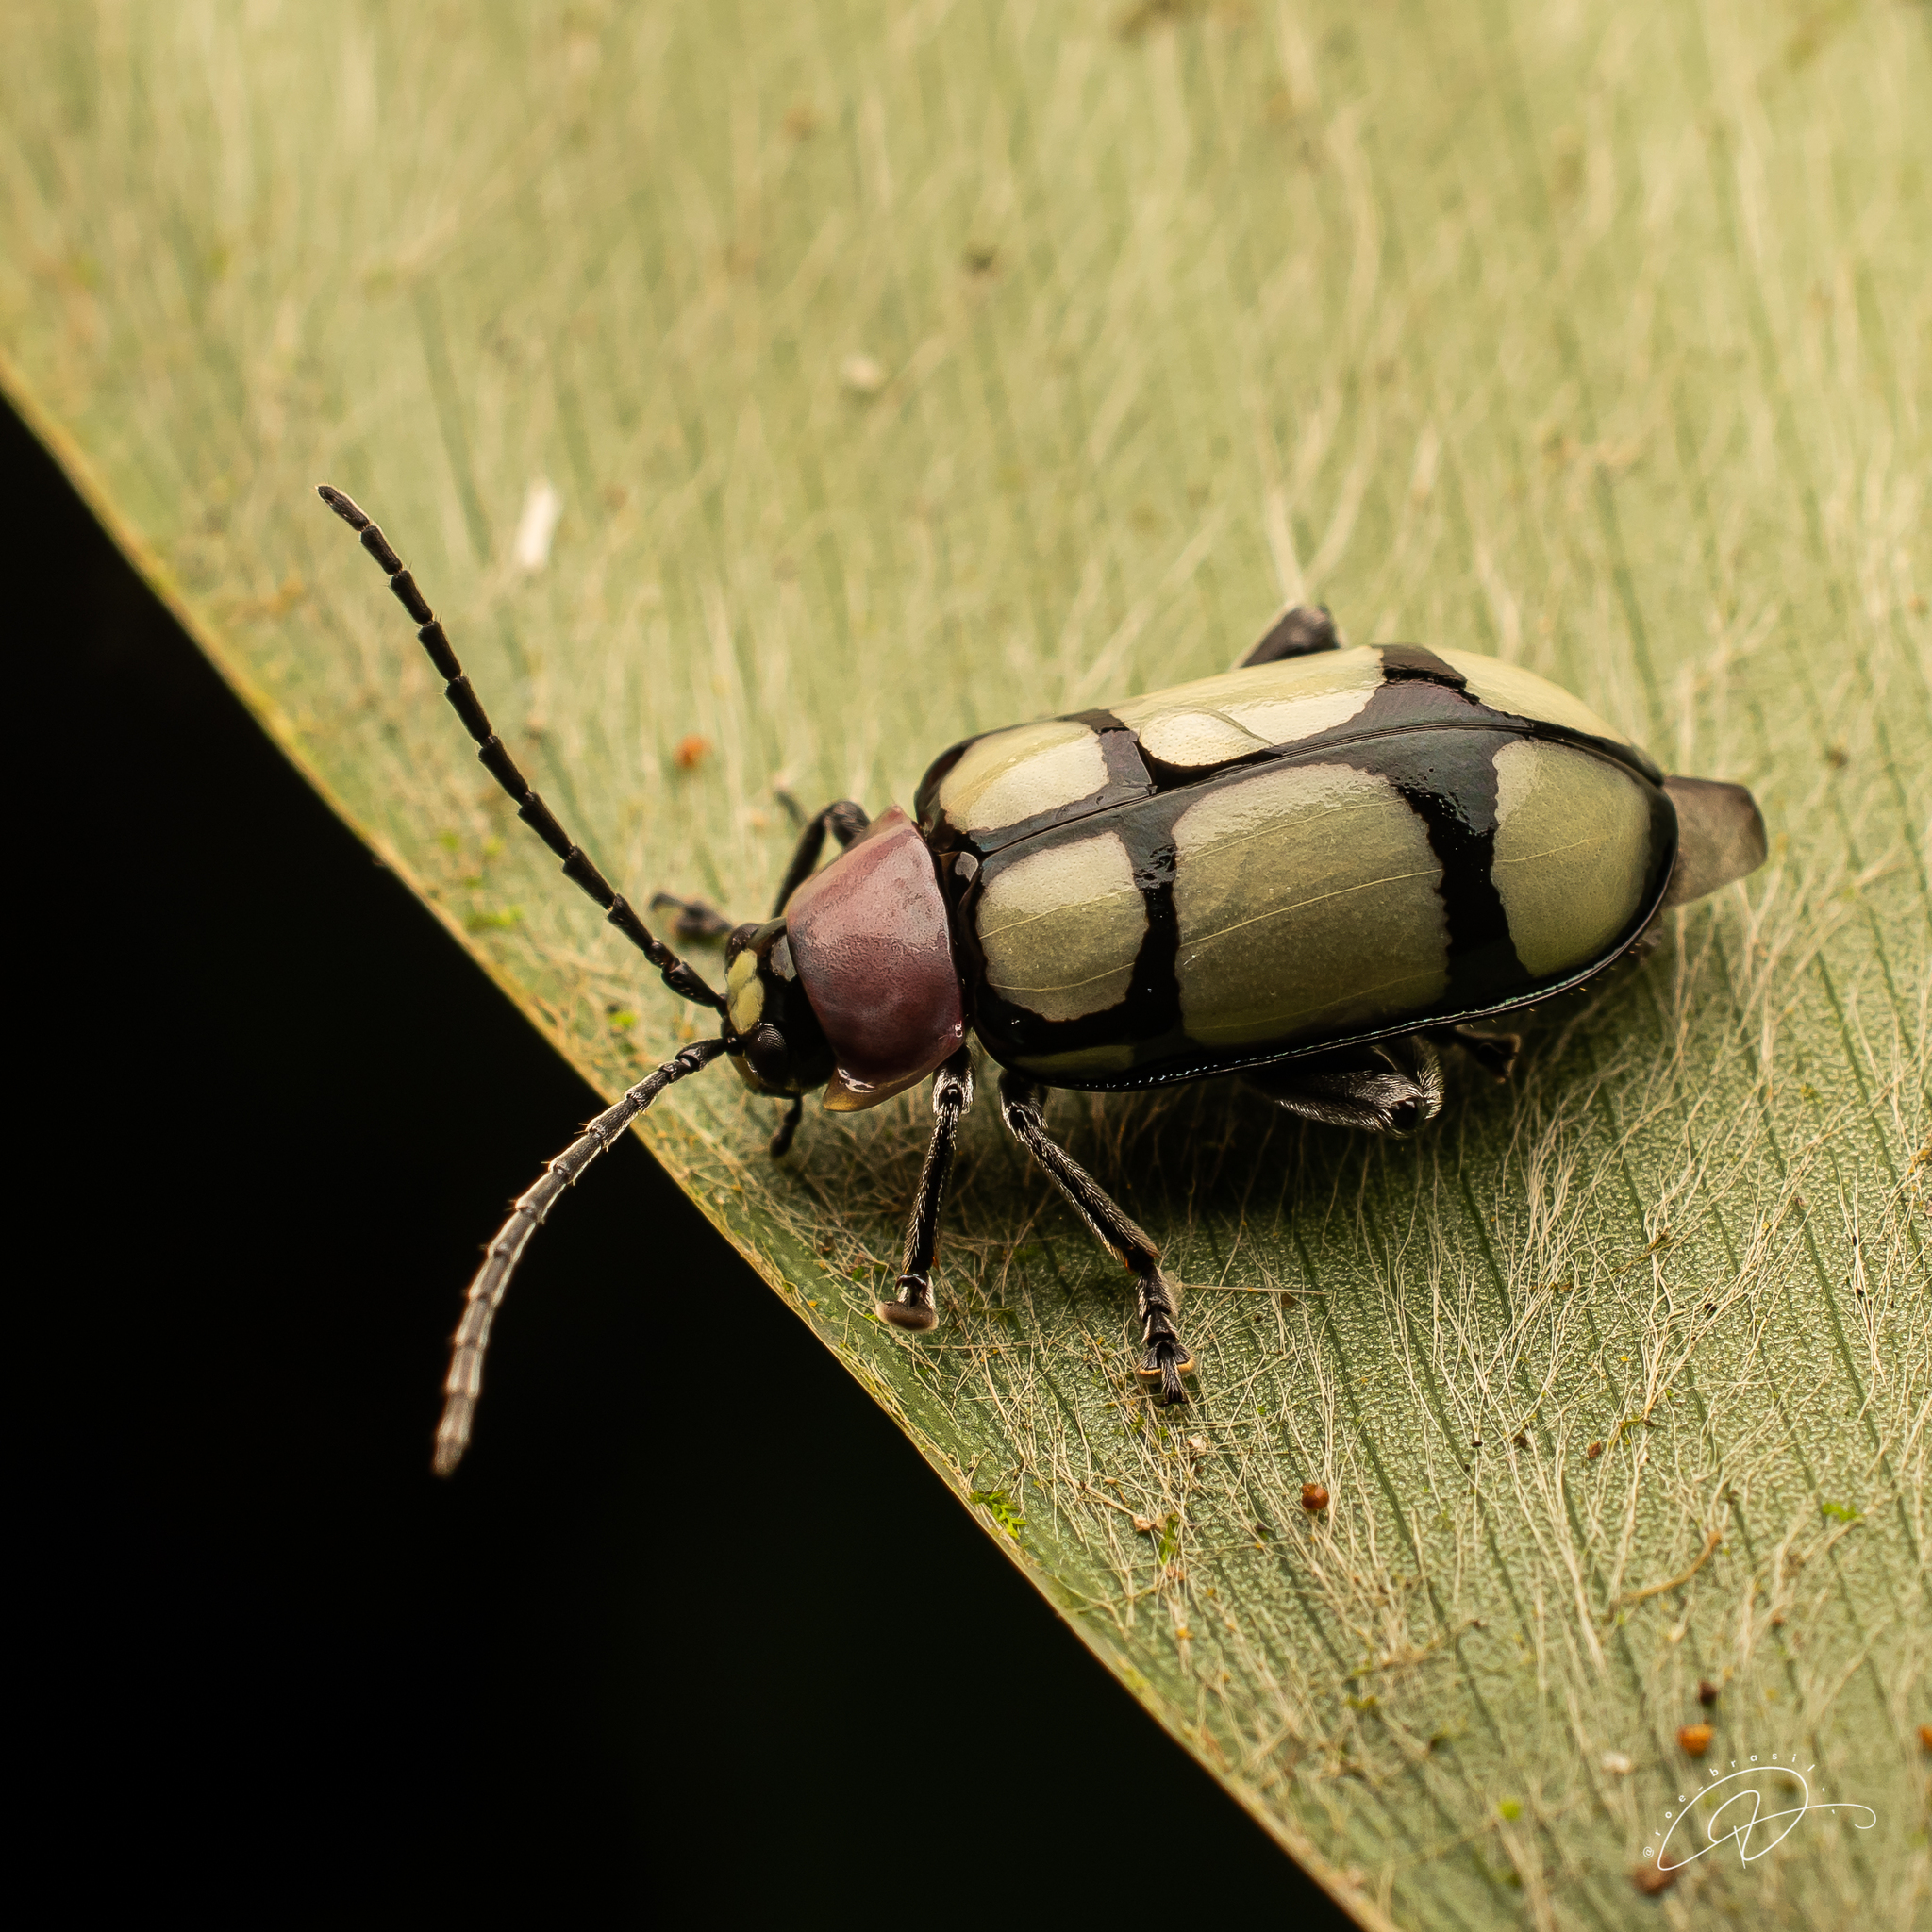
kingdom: Animalia
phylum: Arthropoda
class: Insecta
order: Coleoptera
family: Chrysomelidae
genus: Omophoita
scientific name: Omophoita
